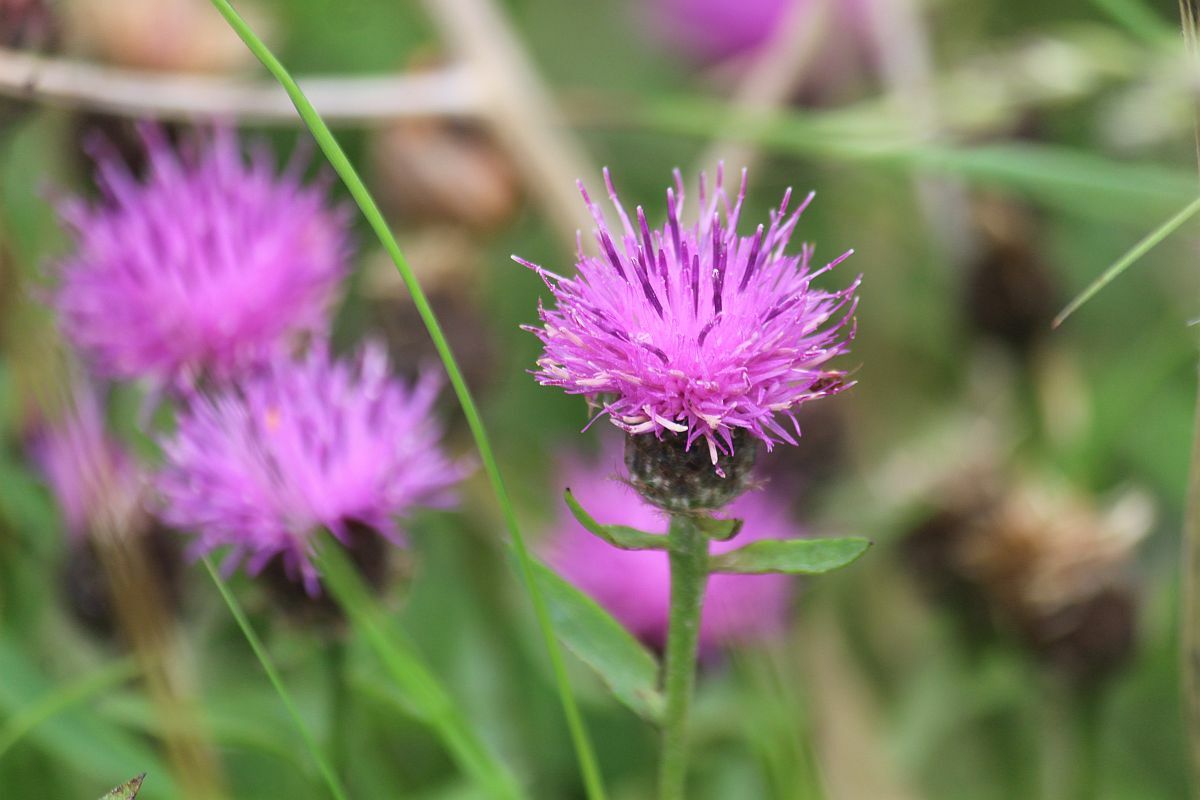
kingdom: Plantae
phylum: Tracheophyta
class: Magnoliopsida
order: Asterales
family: Asteraceae
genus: Centaurea
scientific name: Centaurea nigra
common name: Lesser knapweed
